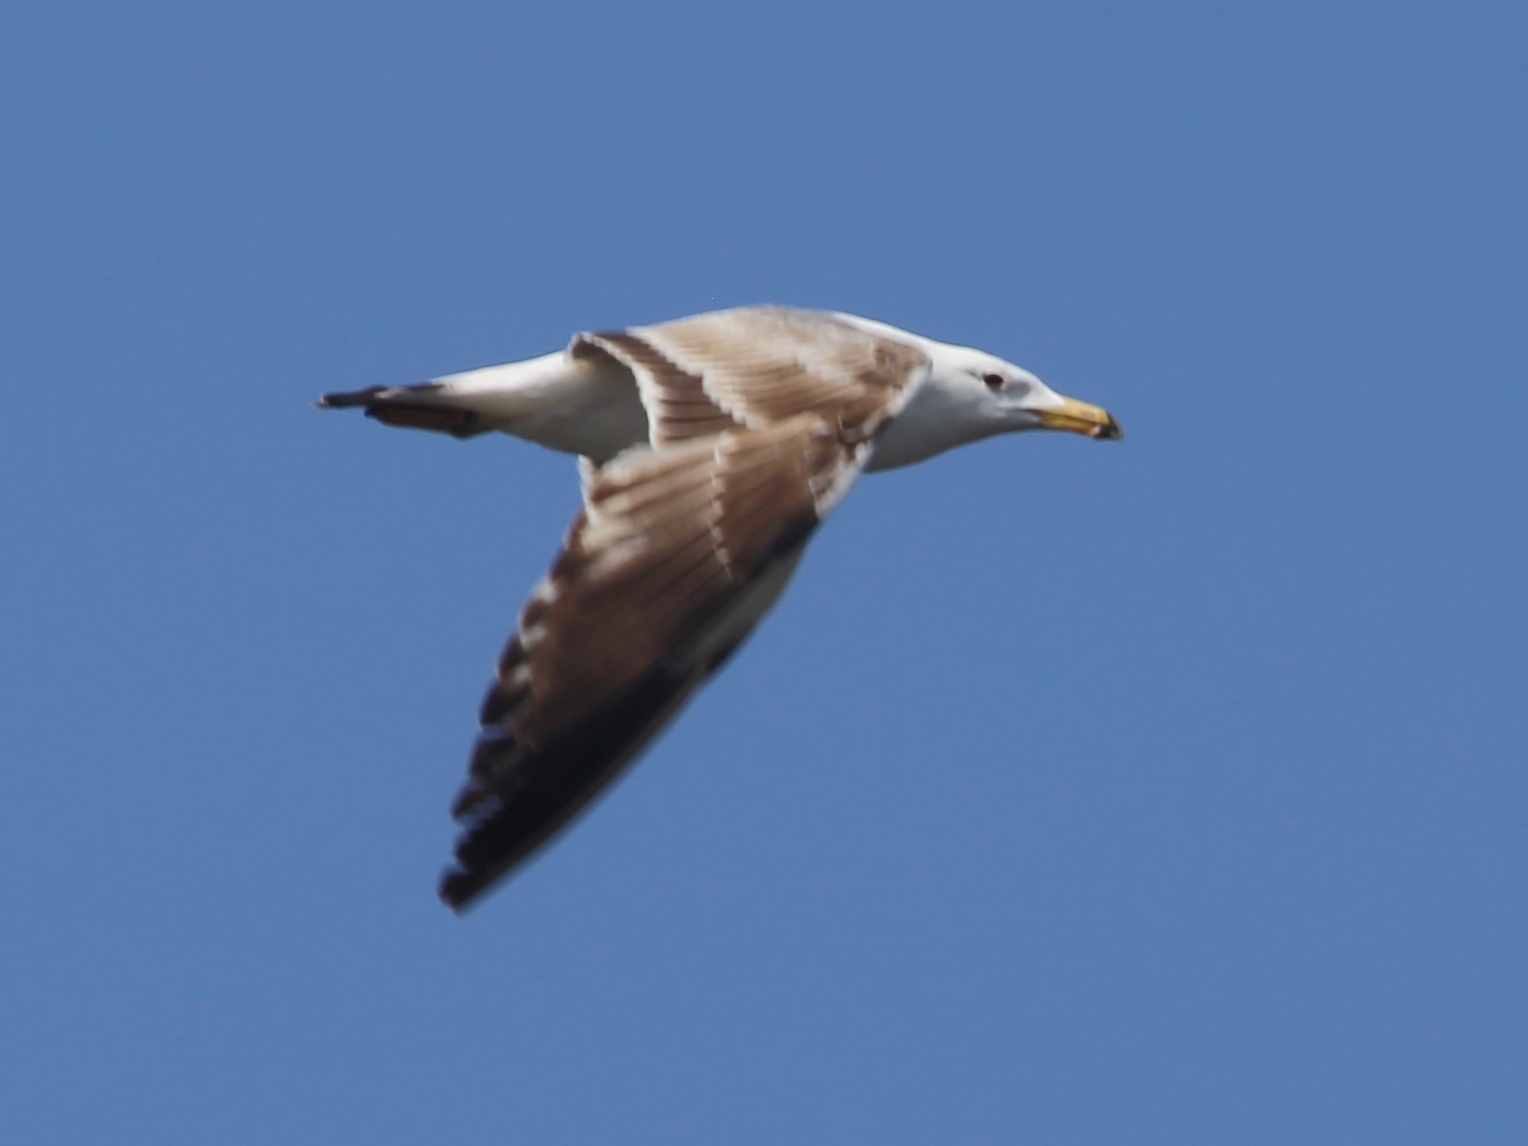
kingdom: Animalia
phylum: Chordata
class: Aves
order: Charadriiformes
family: Laridae
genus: Larus
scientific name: Larus fuscus
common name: Lesser black-backed gull
